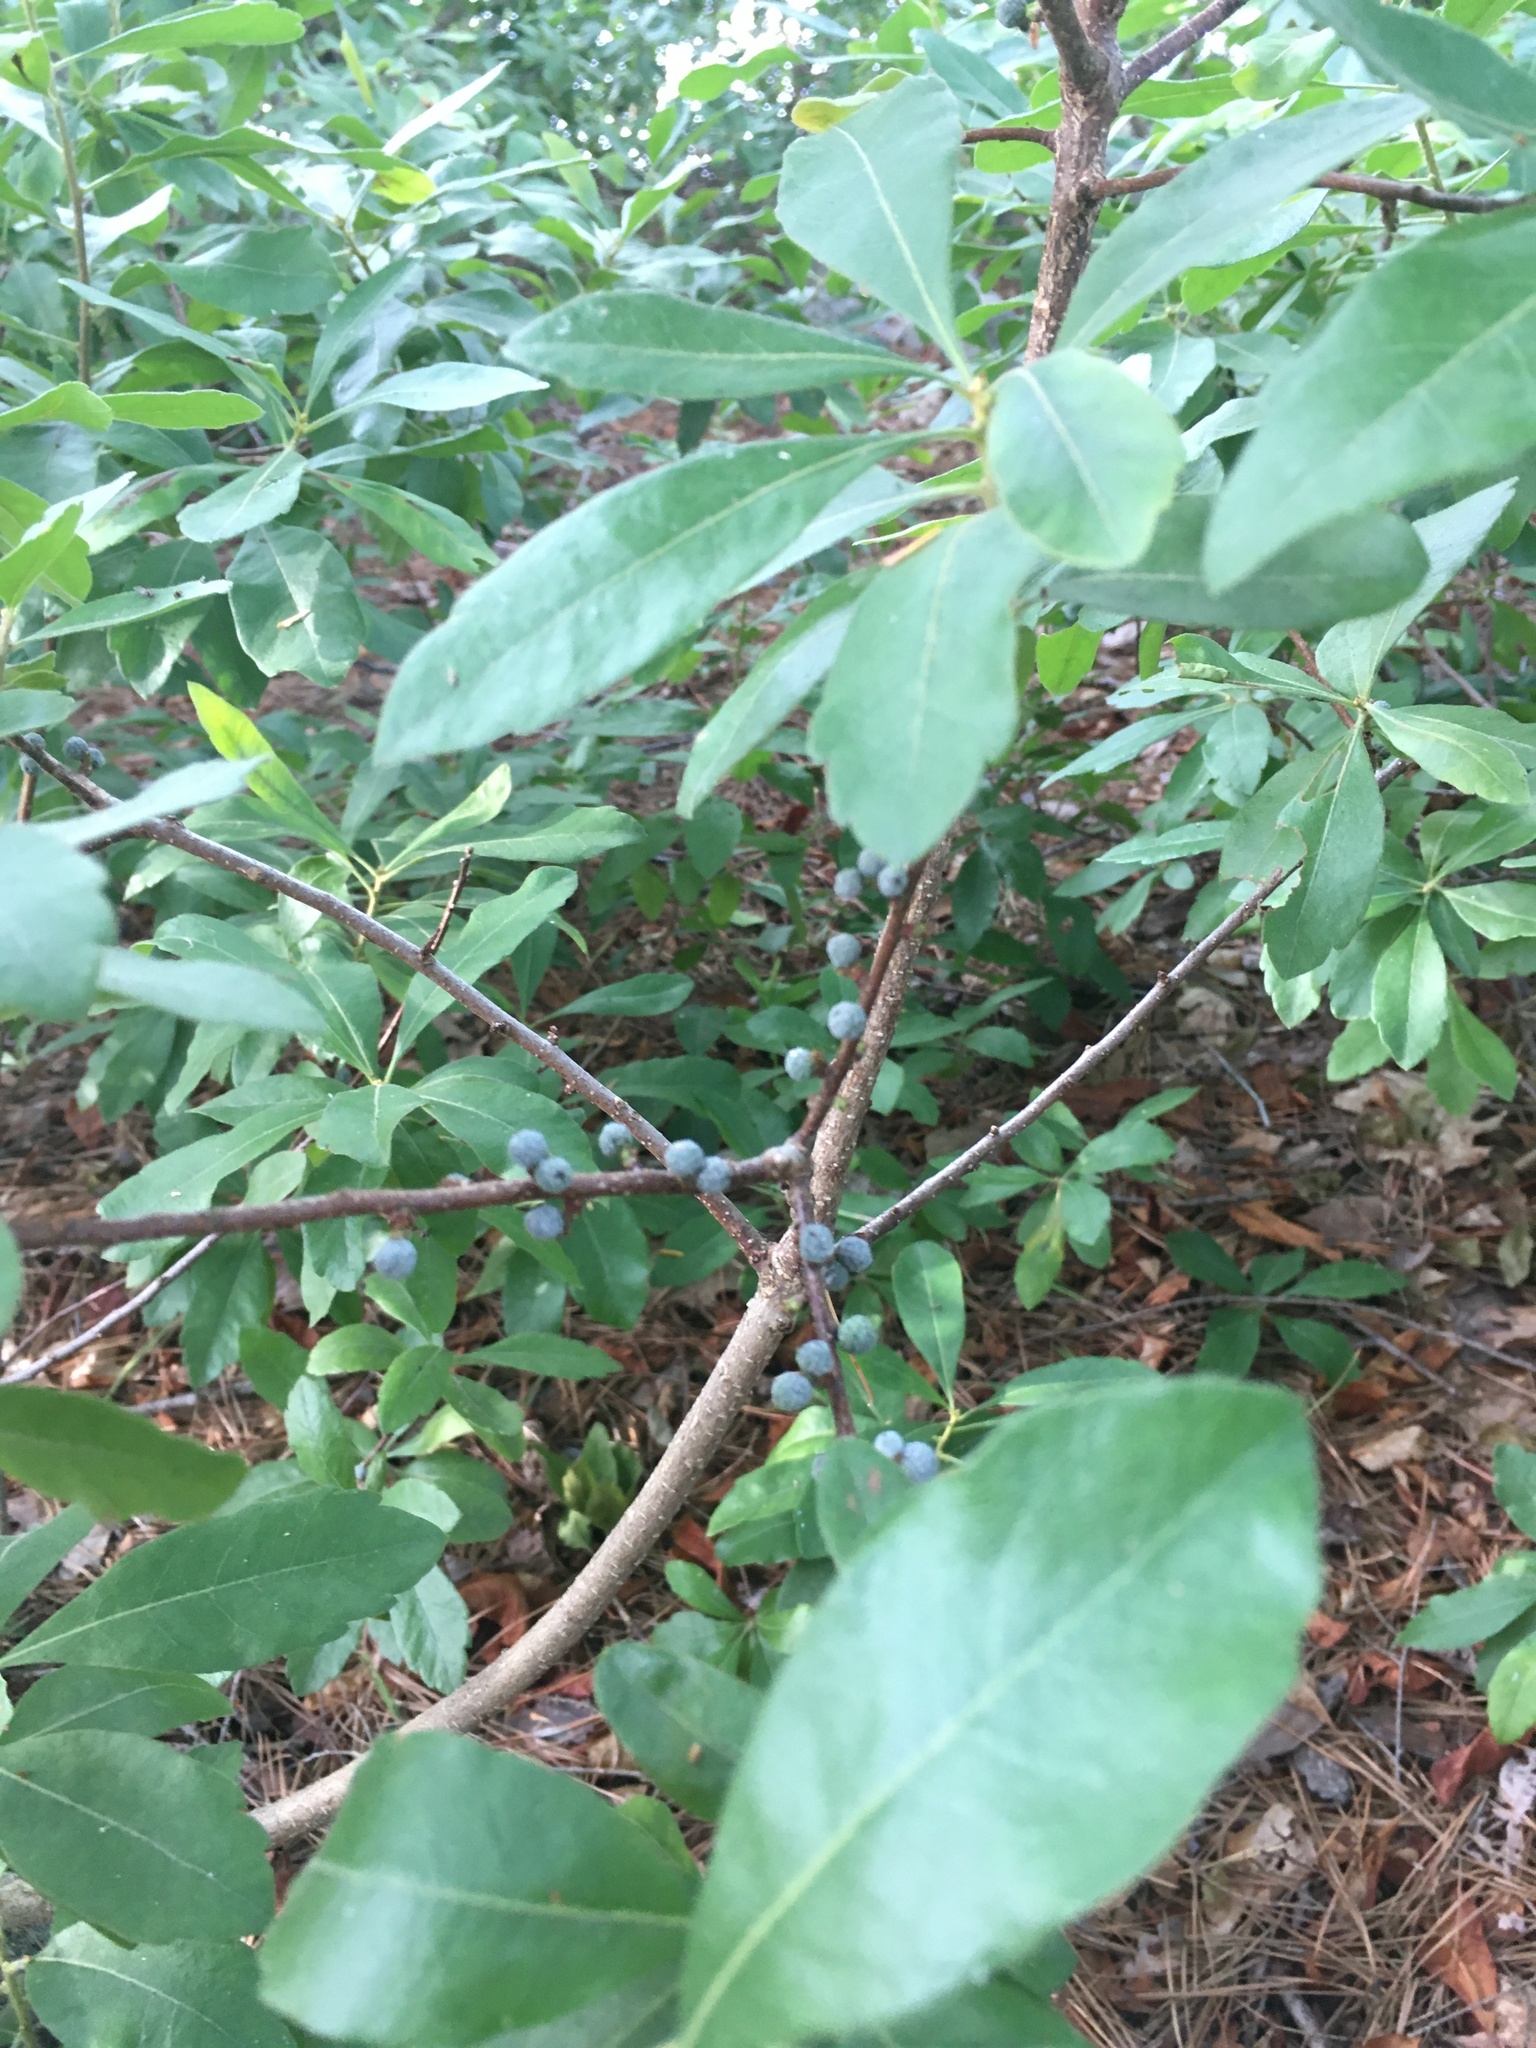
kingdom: Plantae
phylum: Tracheophyta
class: Magnoliopsida
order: Fagales
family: Myricaceae
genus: Morella
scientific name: Morella pensylvanica
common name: Northern bayberry
